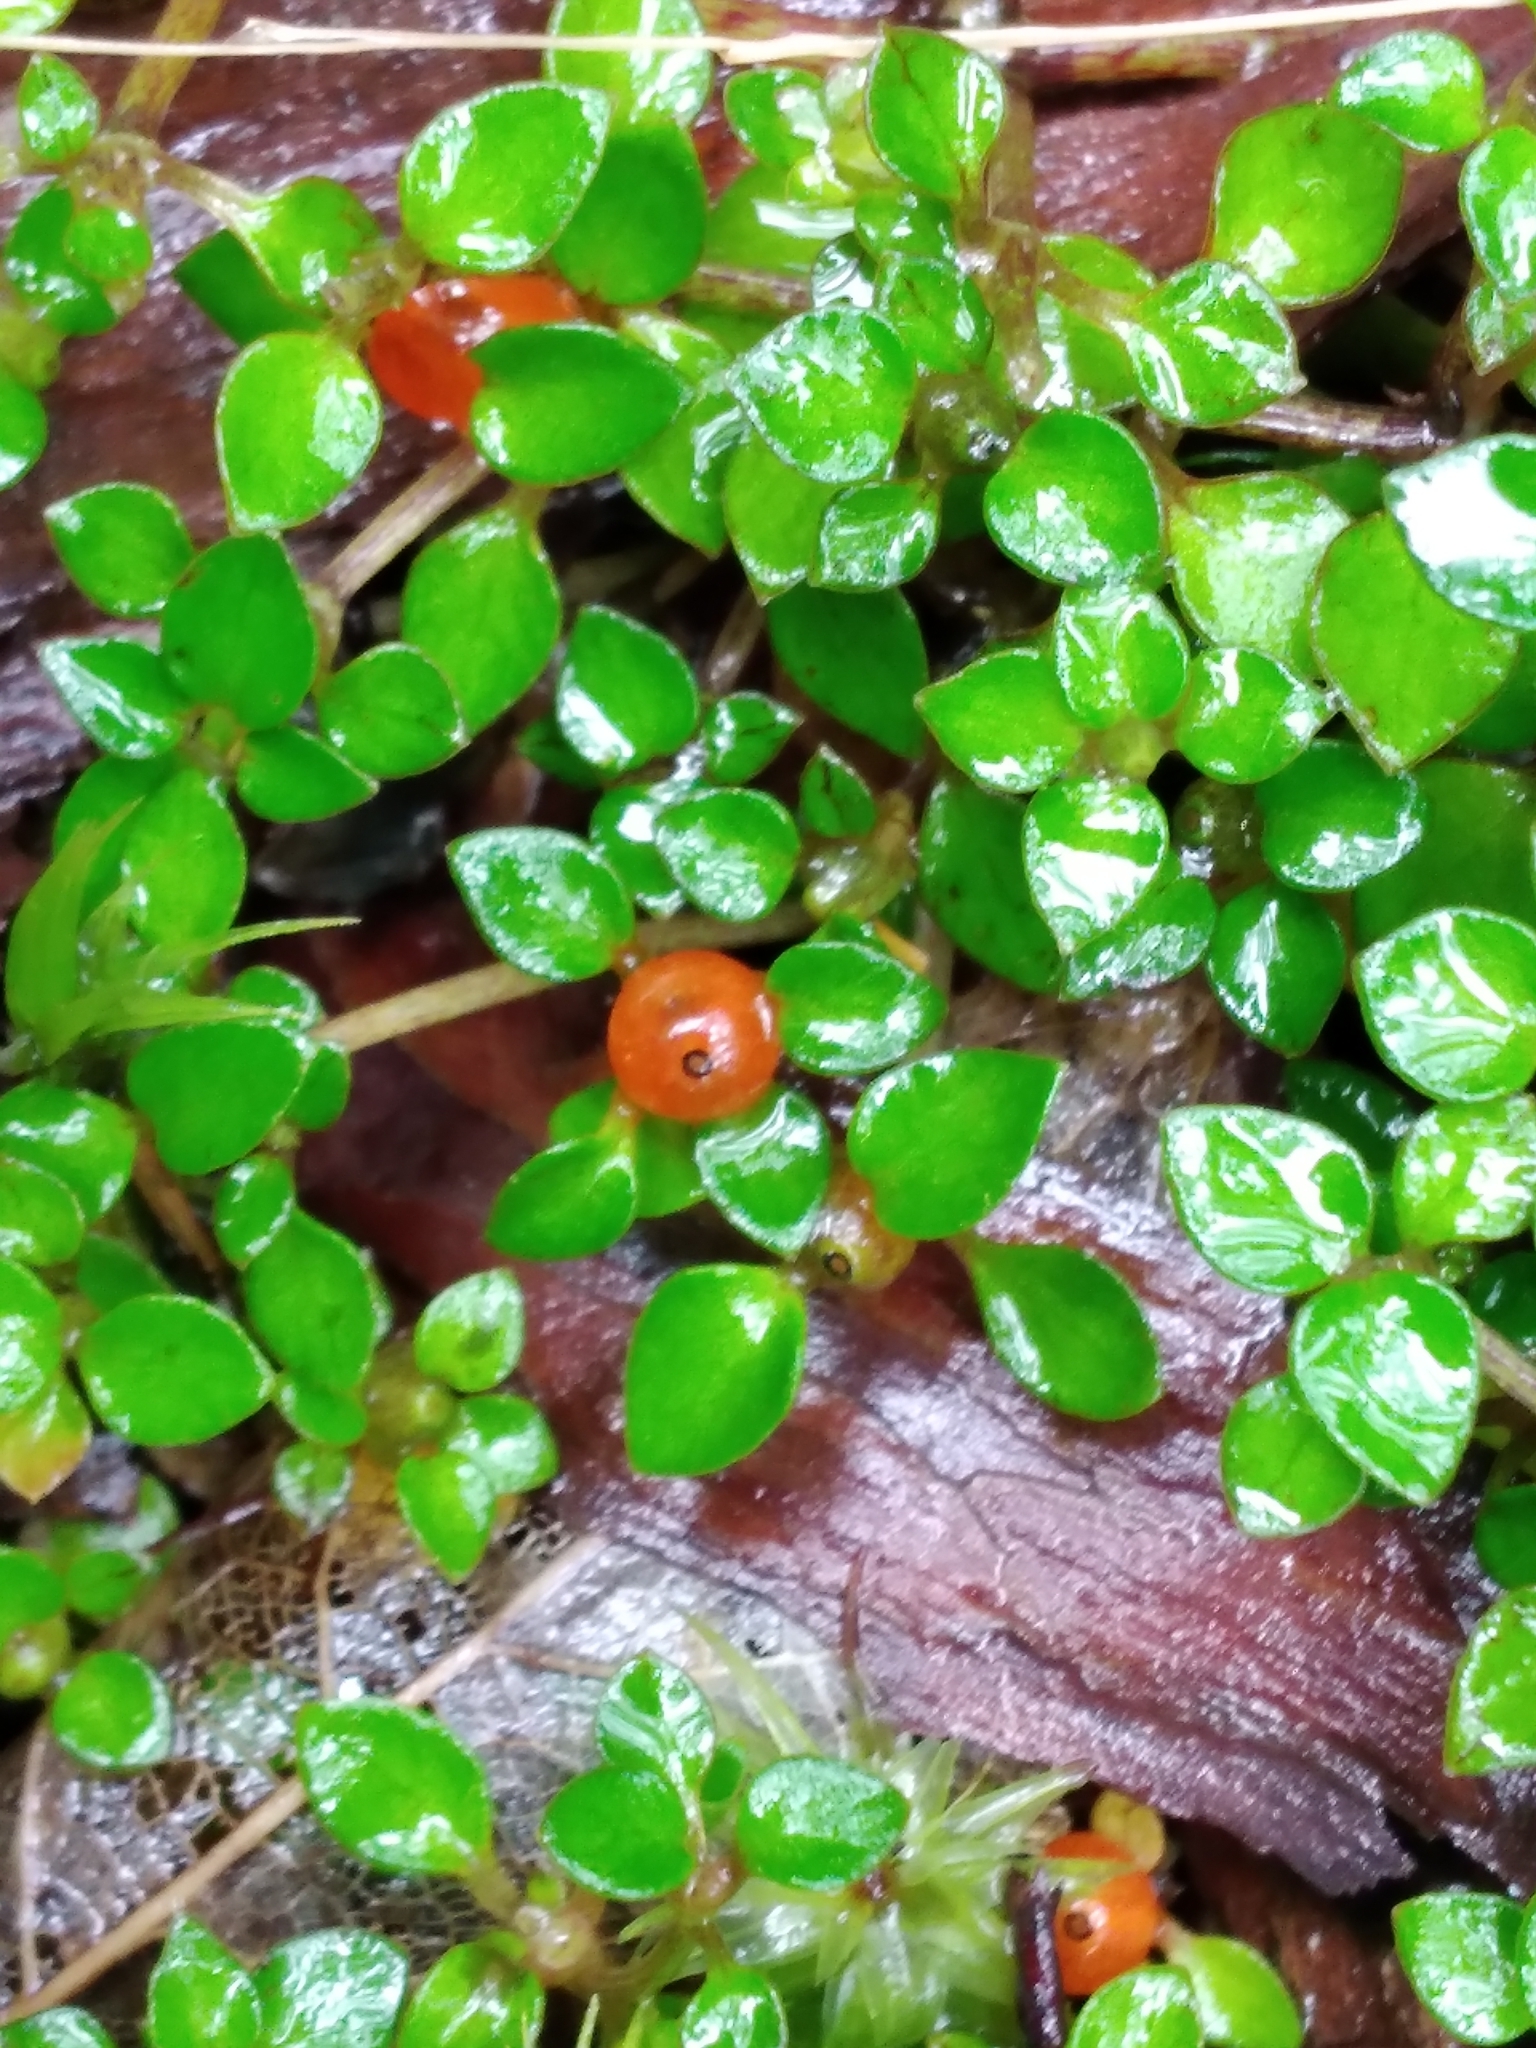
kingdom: Plantae
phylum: Tracheophyta
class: Magnoliopsida
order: Gentianales
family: Rubiaceae
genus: Nertera
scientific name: Nertera granadensis
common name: Beadplant
